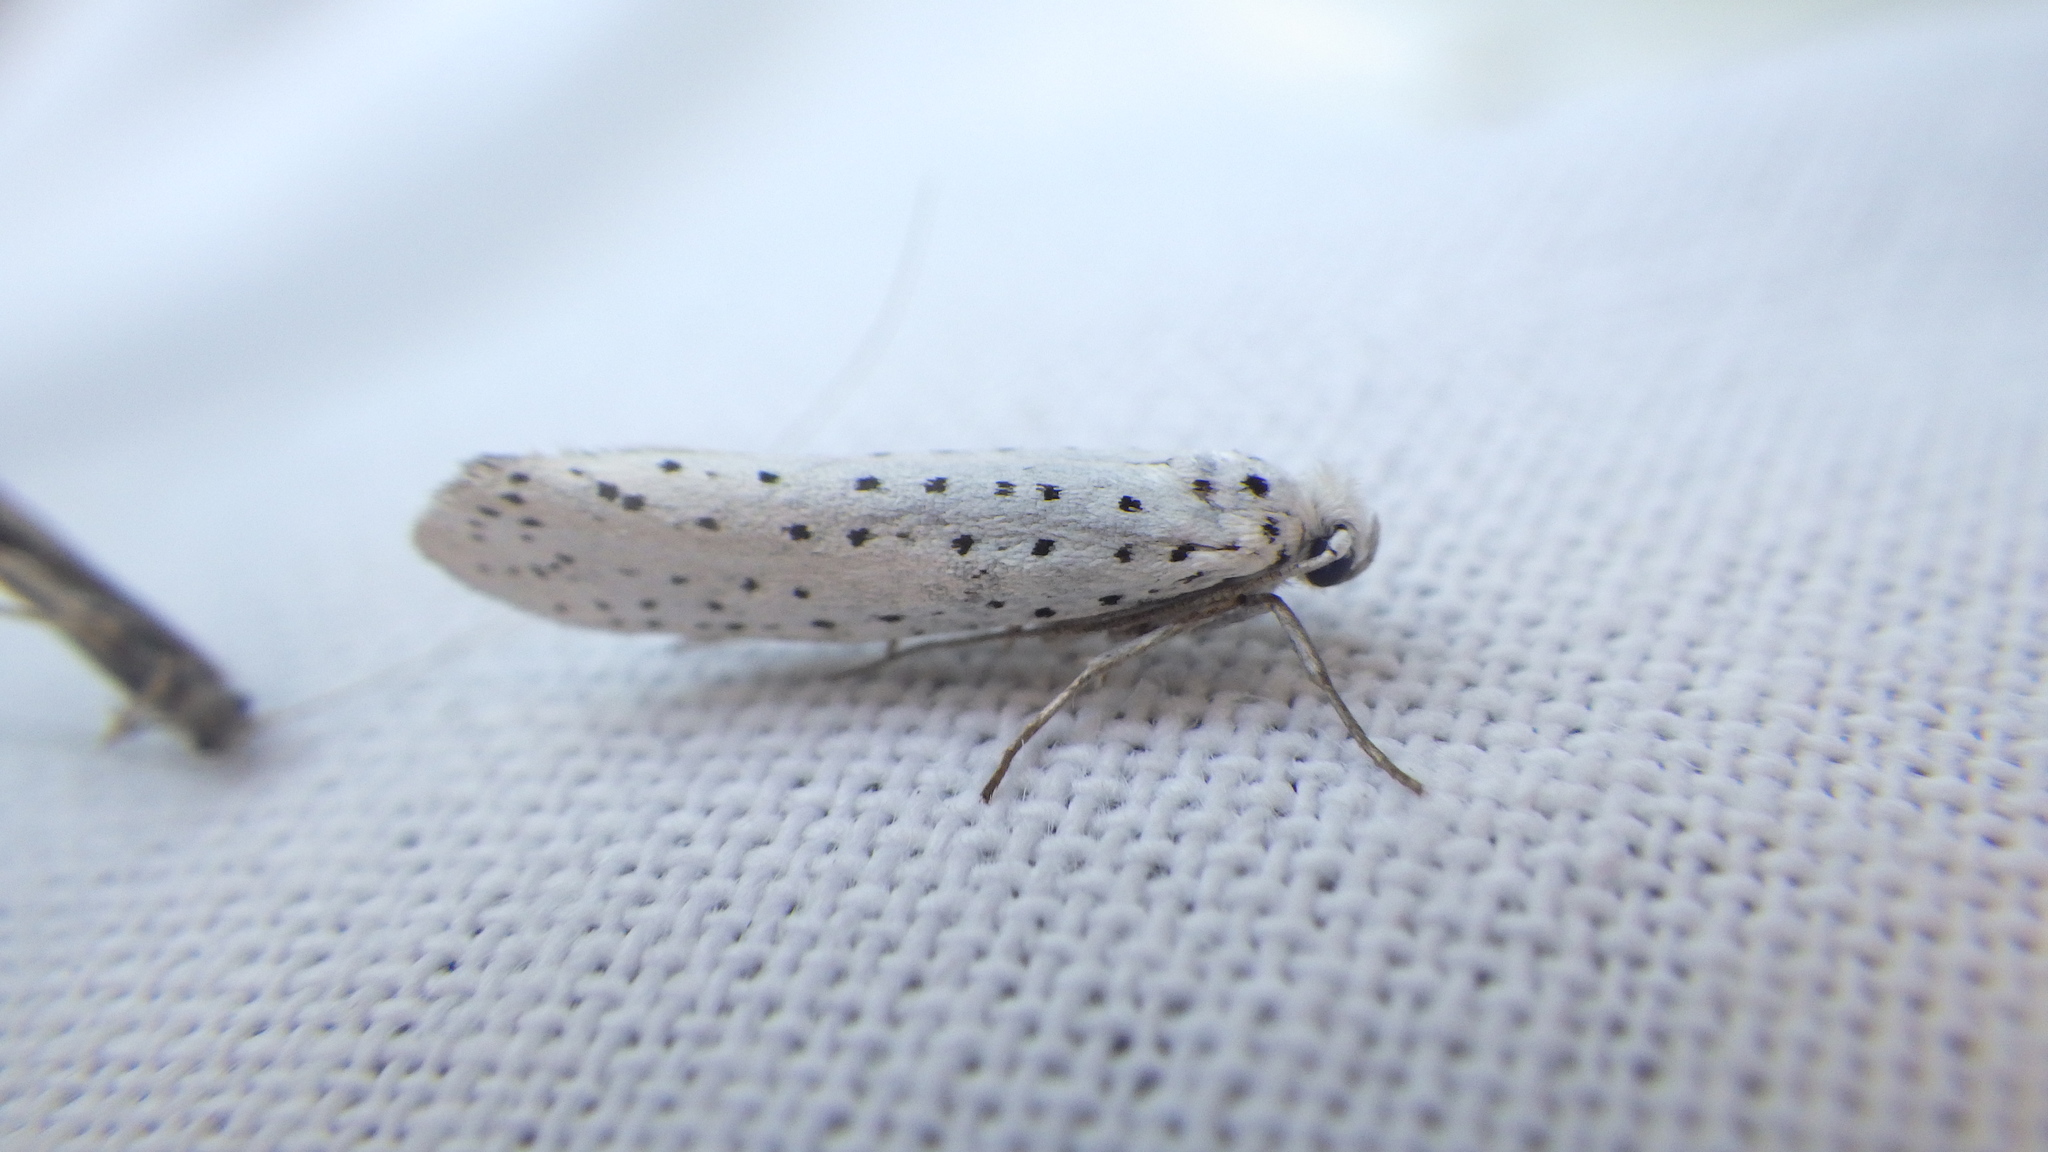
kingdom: Animalia
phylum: Arthropoda
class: Insecta
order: Lepidoptera
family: Yponomeutidae
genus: Yponomeuta
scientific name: Yponomeuta evonymella
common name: Bird-cherry ermine
